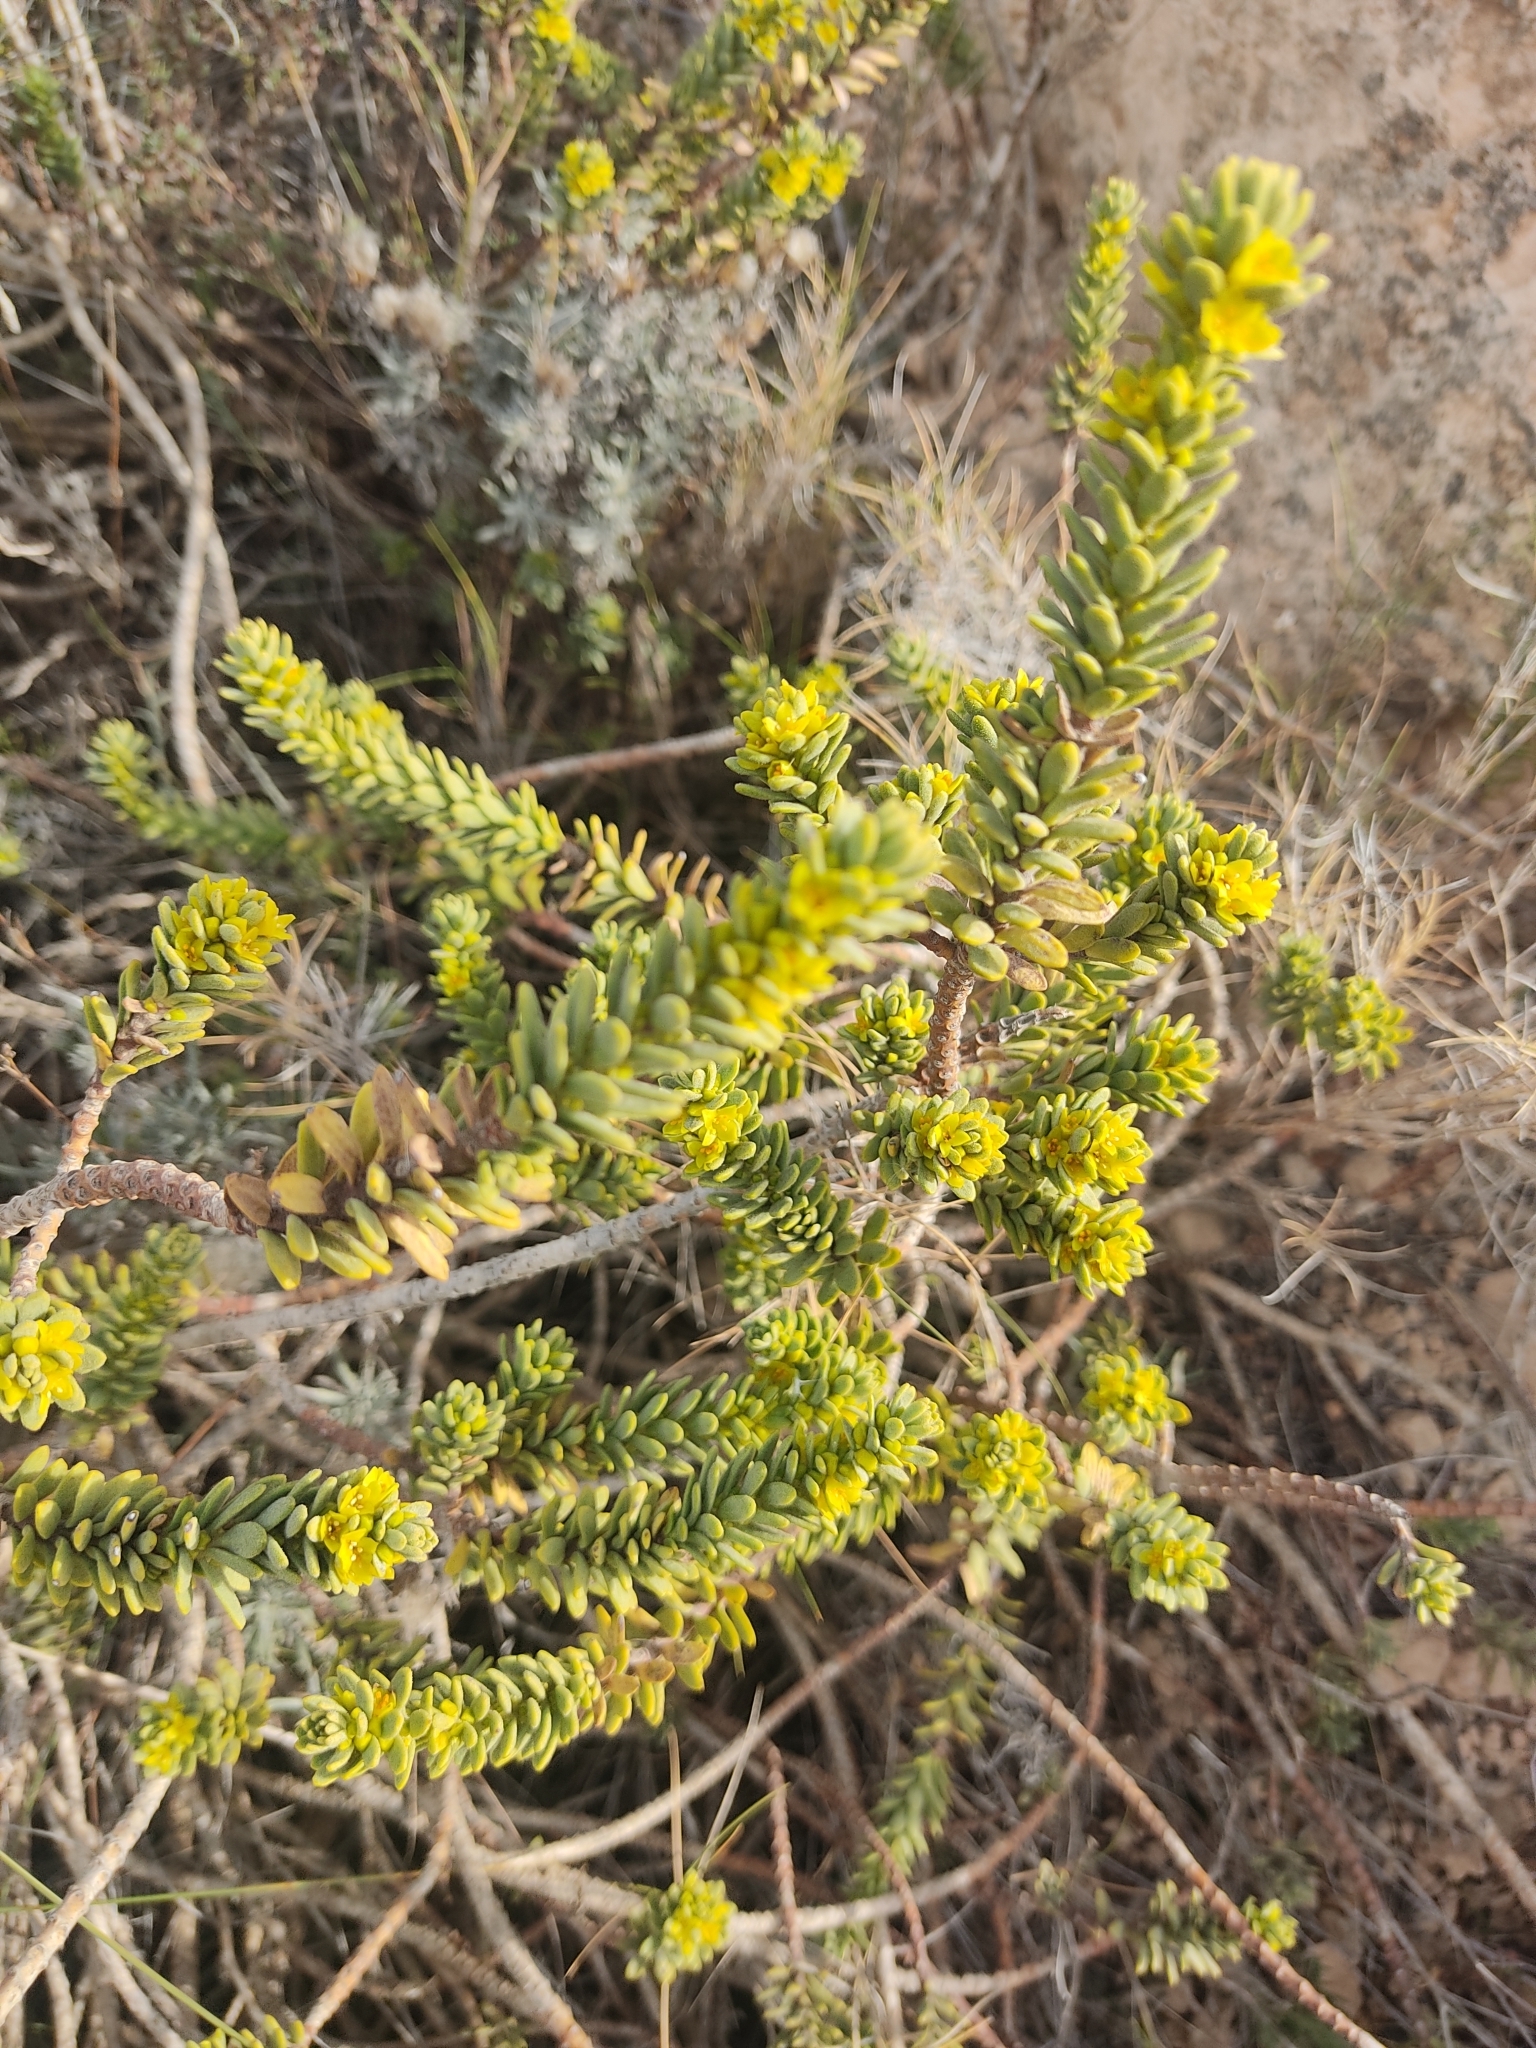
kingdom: Plantae
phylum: Tracheophyta
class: Magnoliopsida
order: Malvales
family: Thymelaeaceae
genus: Thymelaea
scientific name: Thymelaea hirsuta
